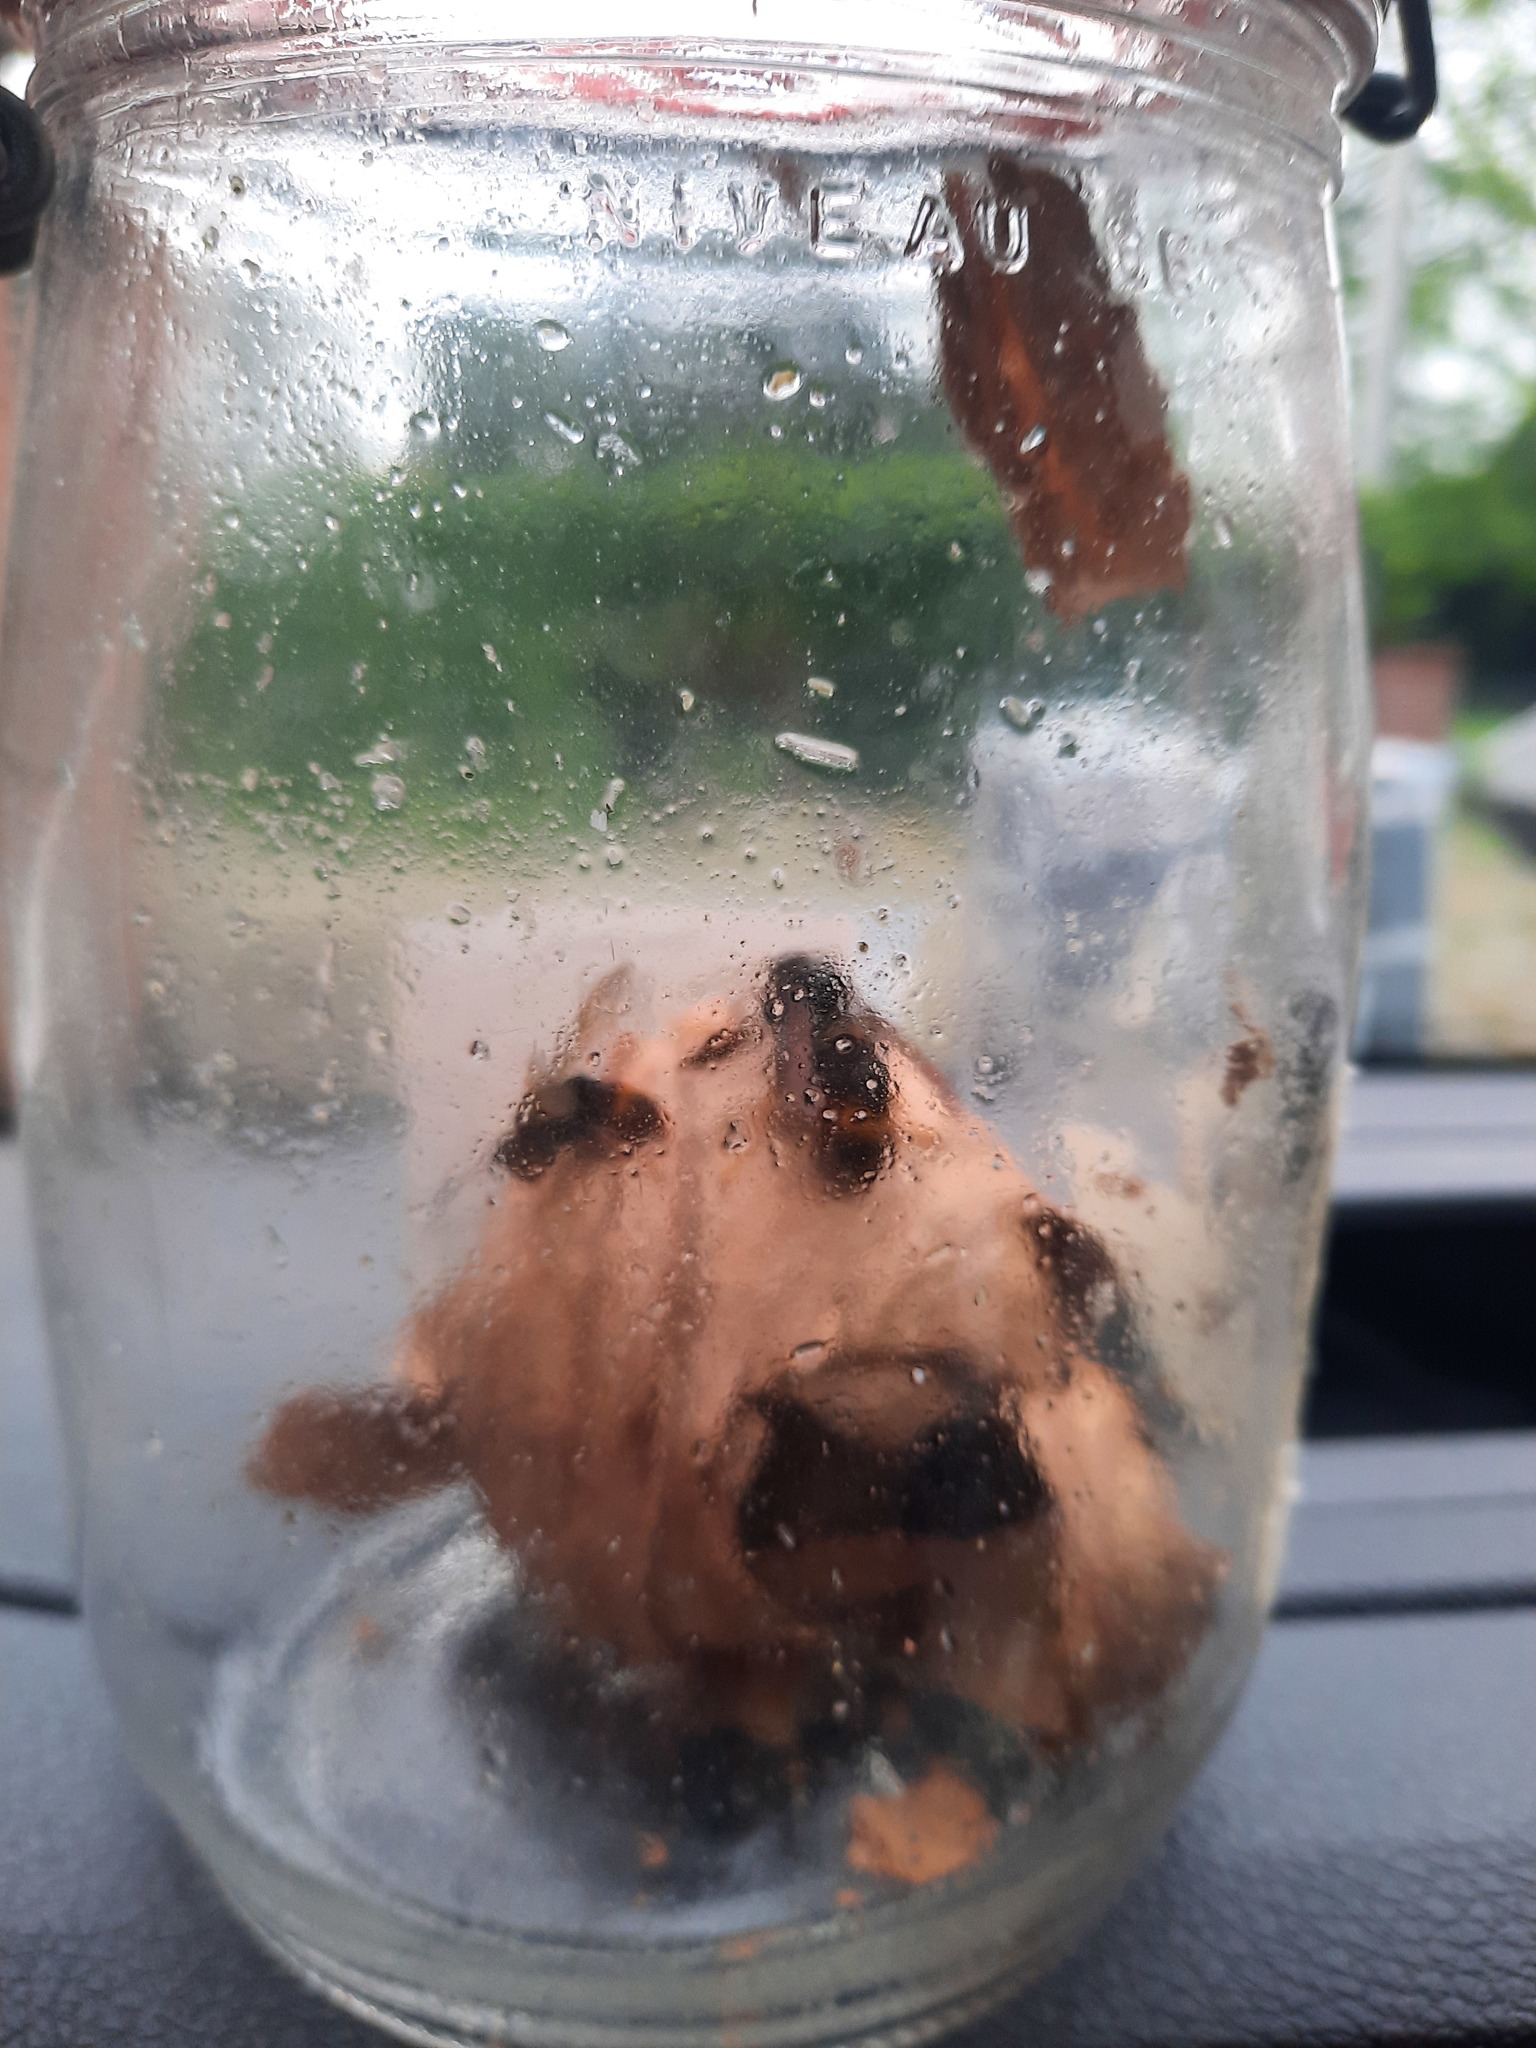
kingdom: Animalia
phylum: Arthropoda
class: Insecta
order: Hymenoptera
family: Vespidae
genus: Vespa
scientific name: Vespa velutina
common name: Asian hornet
